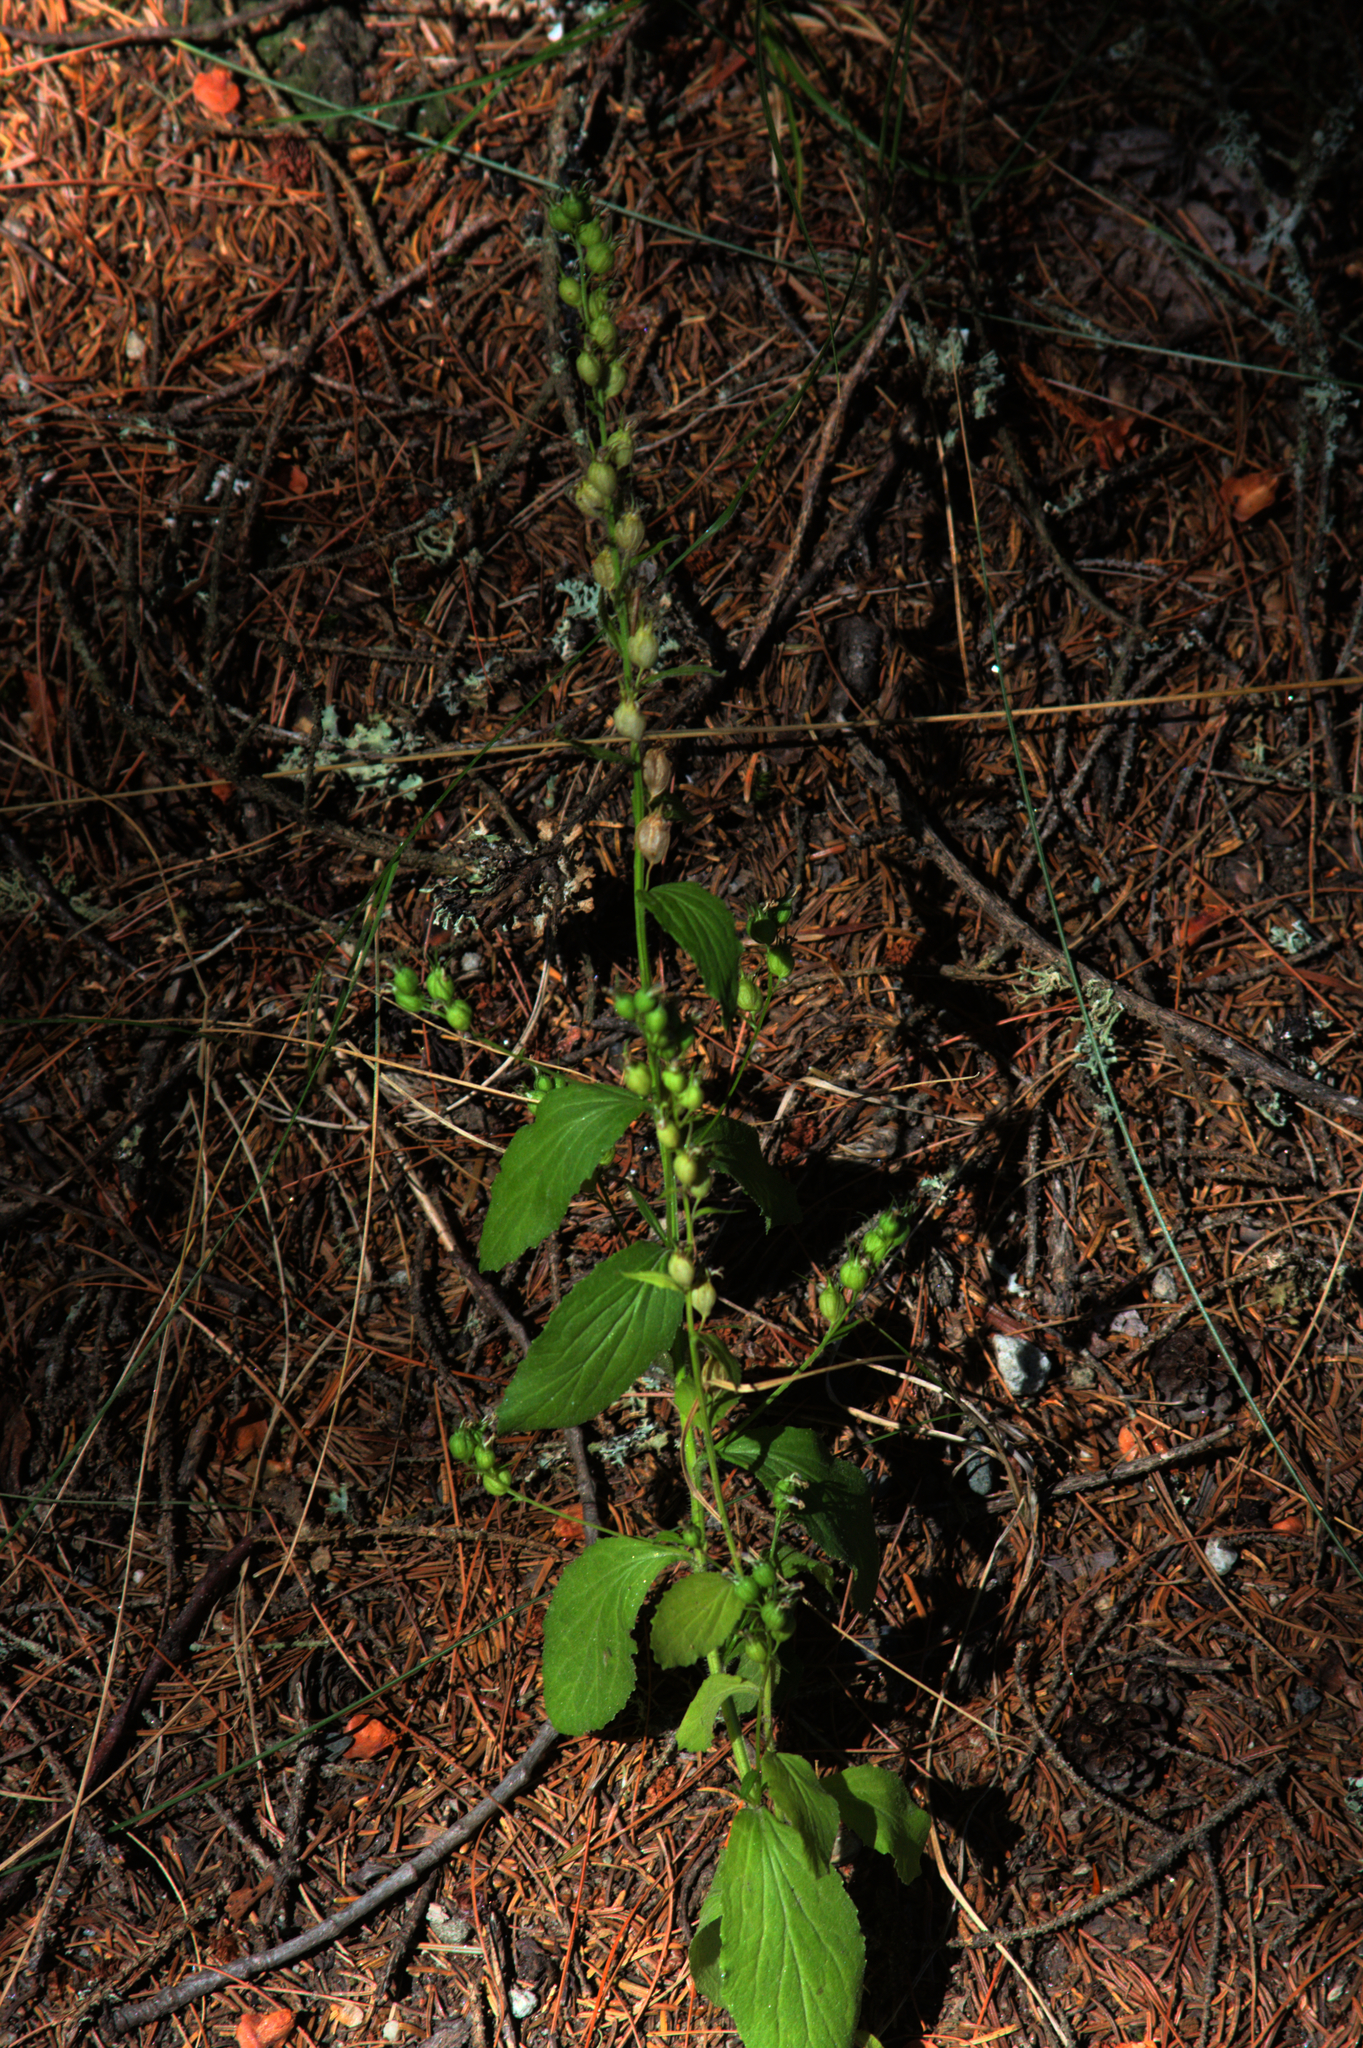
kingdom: Plantae
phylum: Tracheophyta
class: Magnoliopsida
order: Asterales
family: Campanulaceae
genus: Lobelia
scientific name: Lobelia inflata
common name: Indian tobacco
